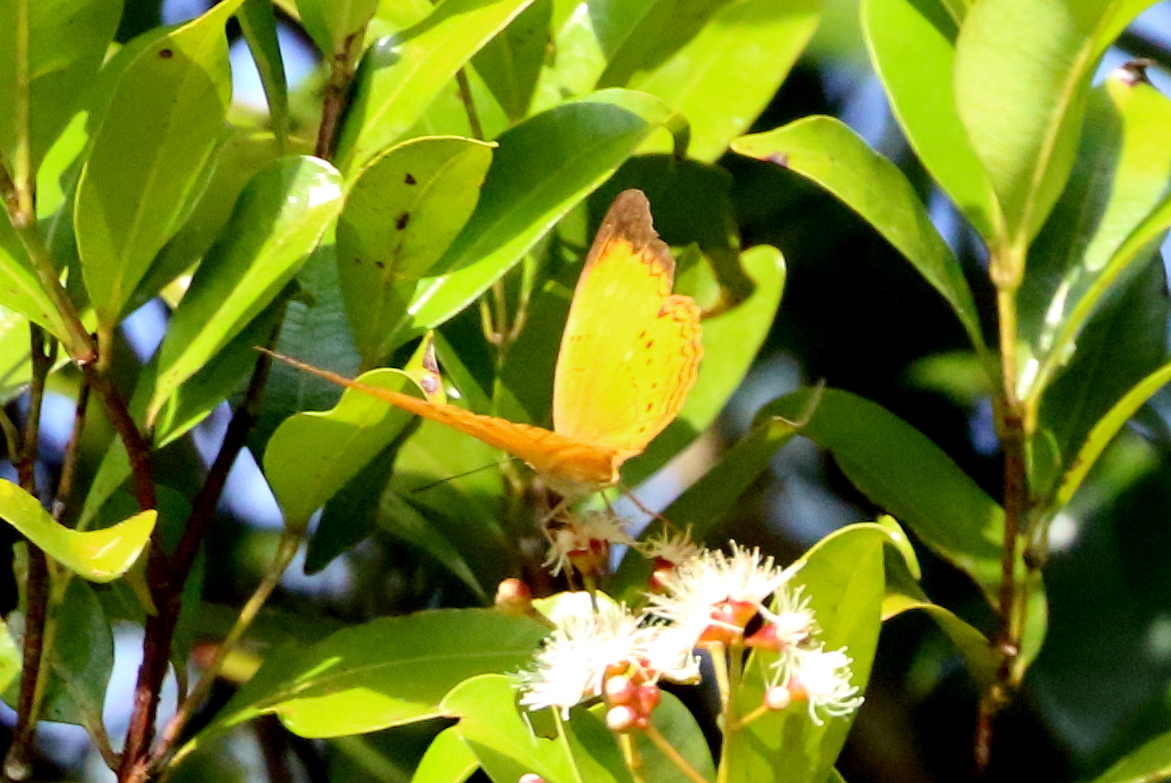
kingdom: Animalia
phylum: Arthropoda
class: Insecta
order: Lepidoptera
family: Nymphalidae
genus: Cirrochroa
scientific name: Cirrochroa emalea
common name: Malay yeoman
